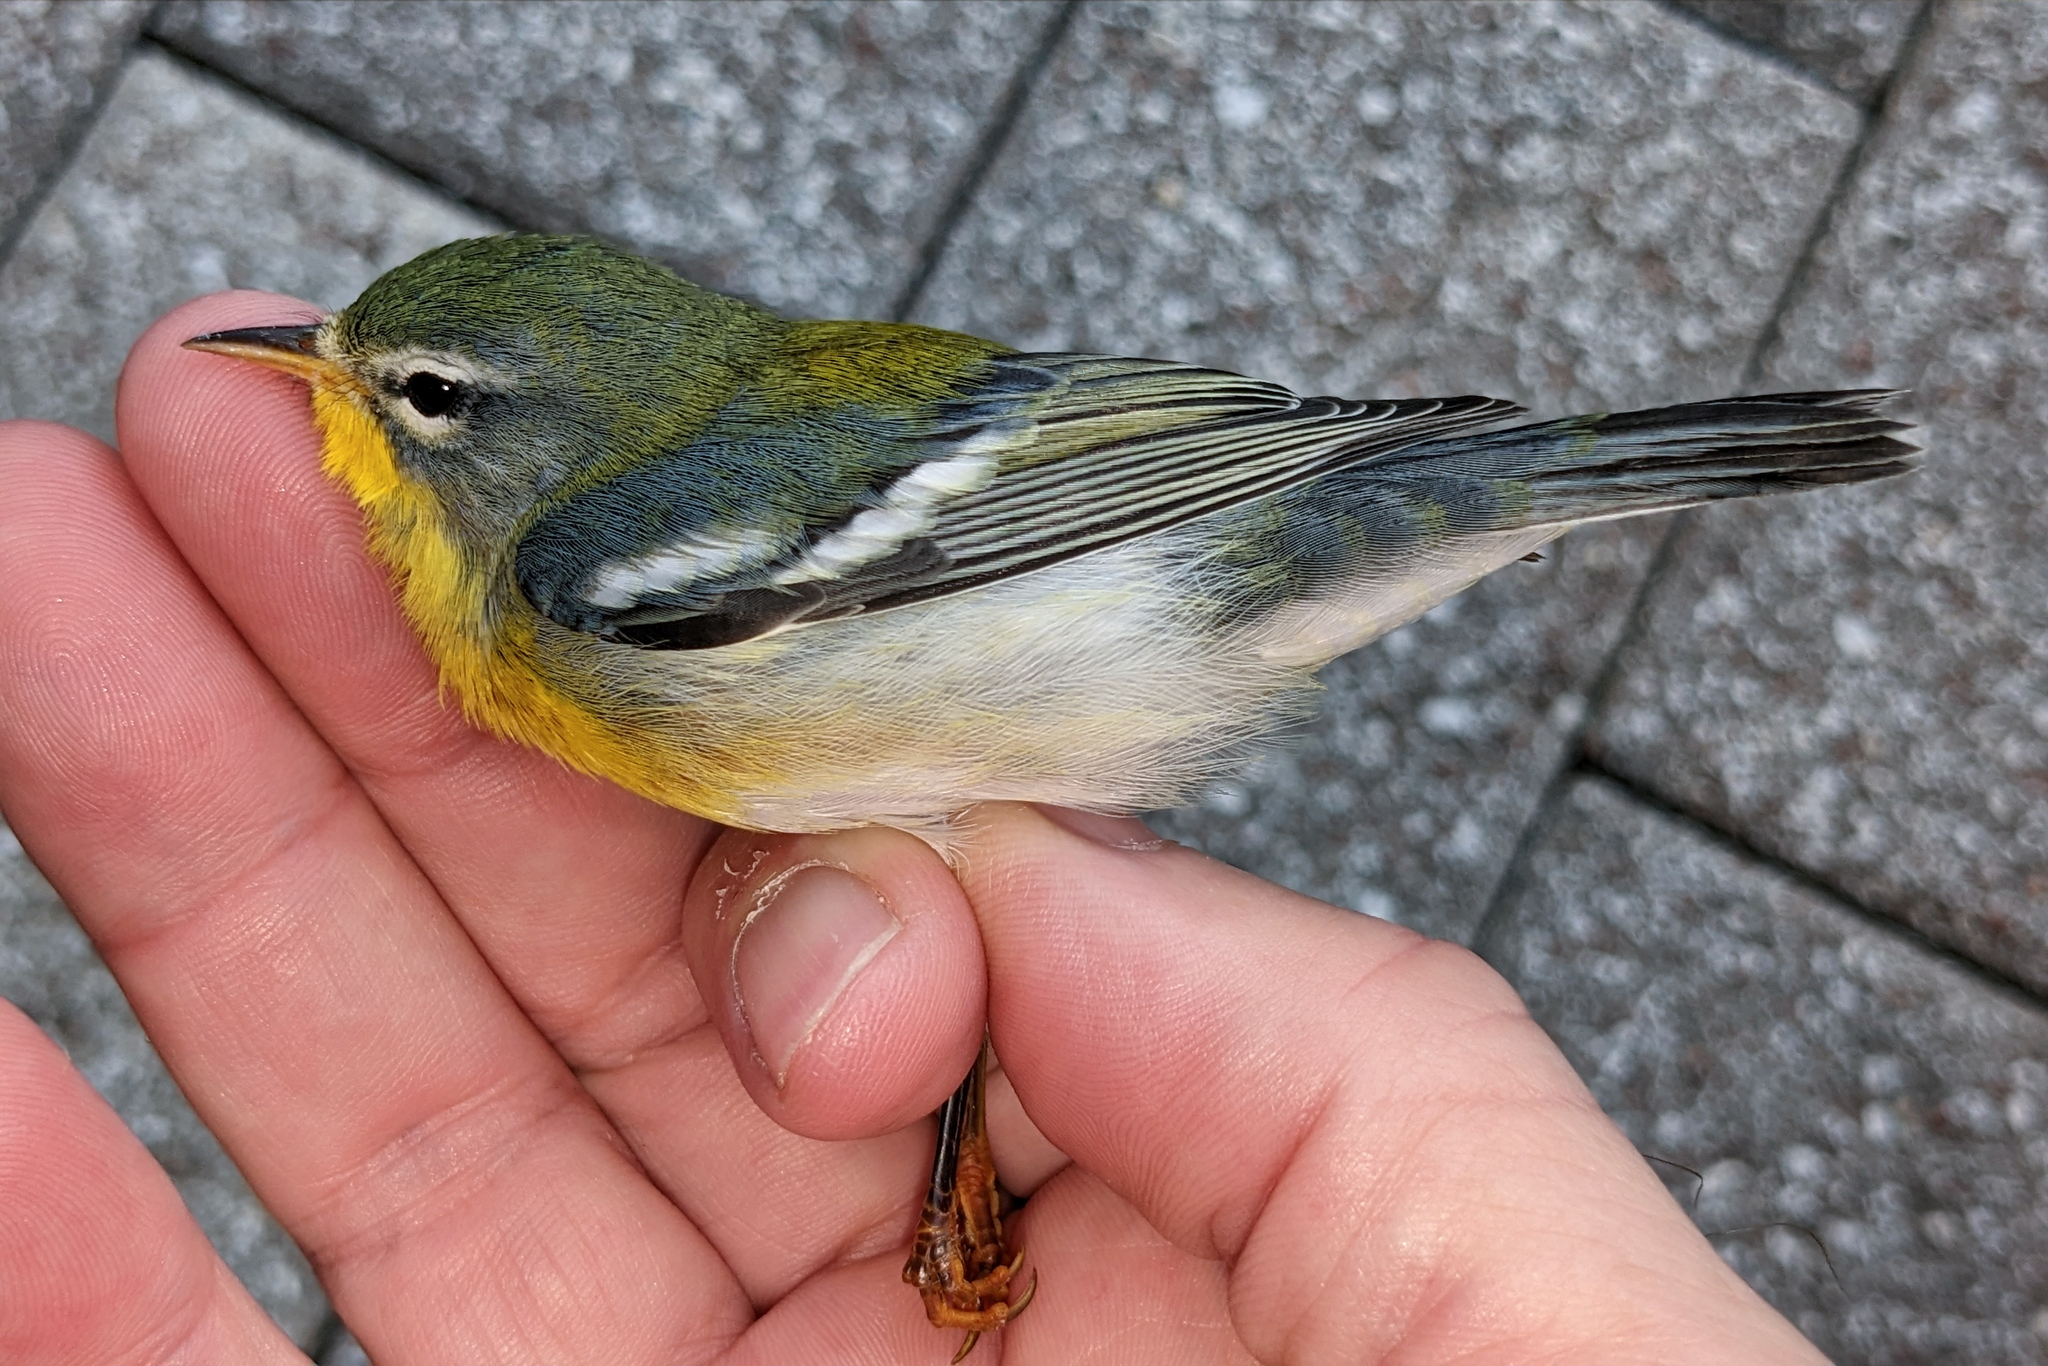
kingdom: Animalia
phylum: Chordata
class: Aves
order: Passeriformes
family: Parulidae
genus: Setophaga
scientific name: Setophaga americana
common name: Northern parula
